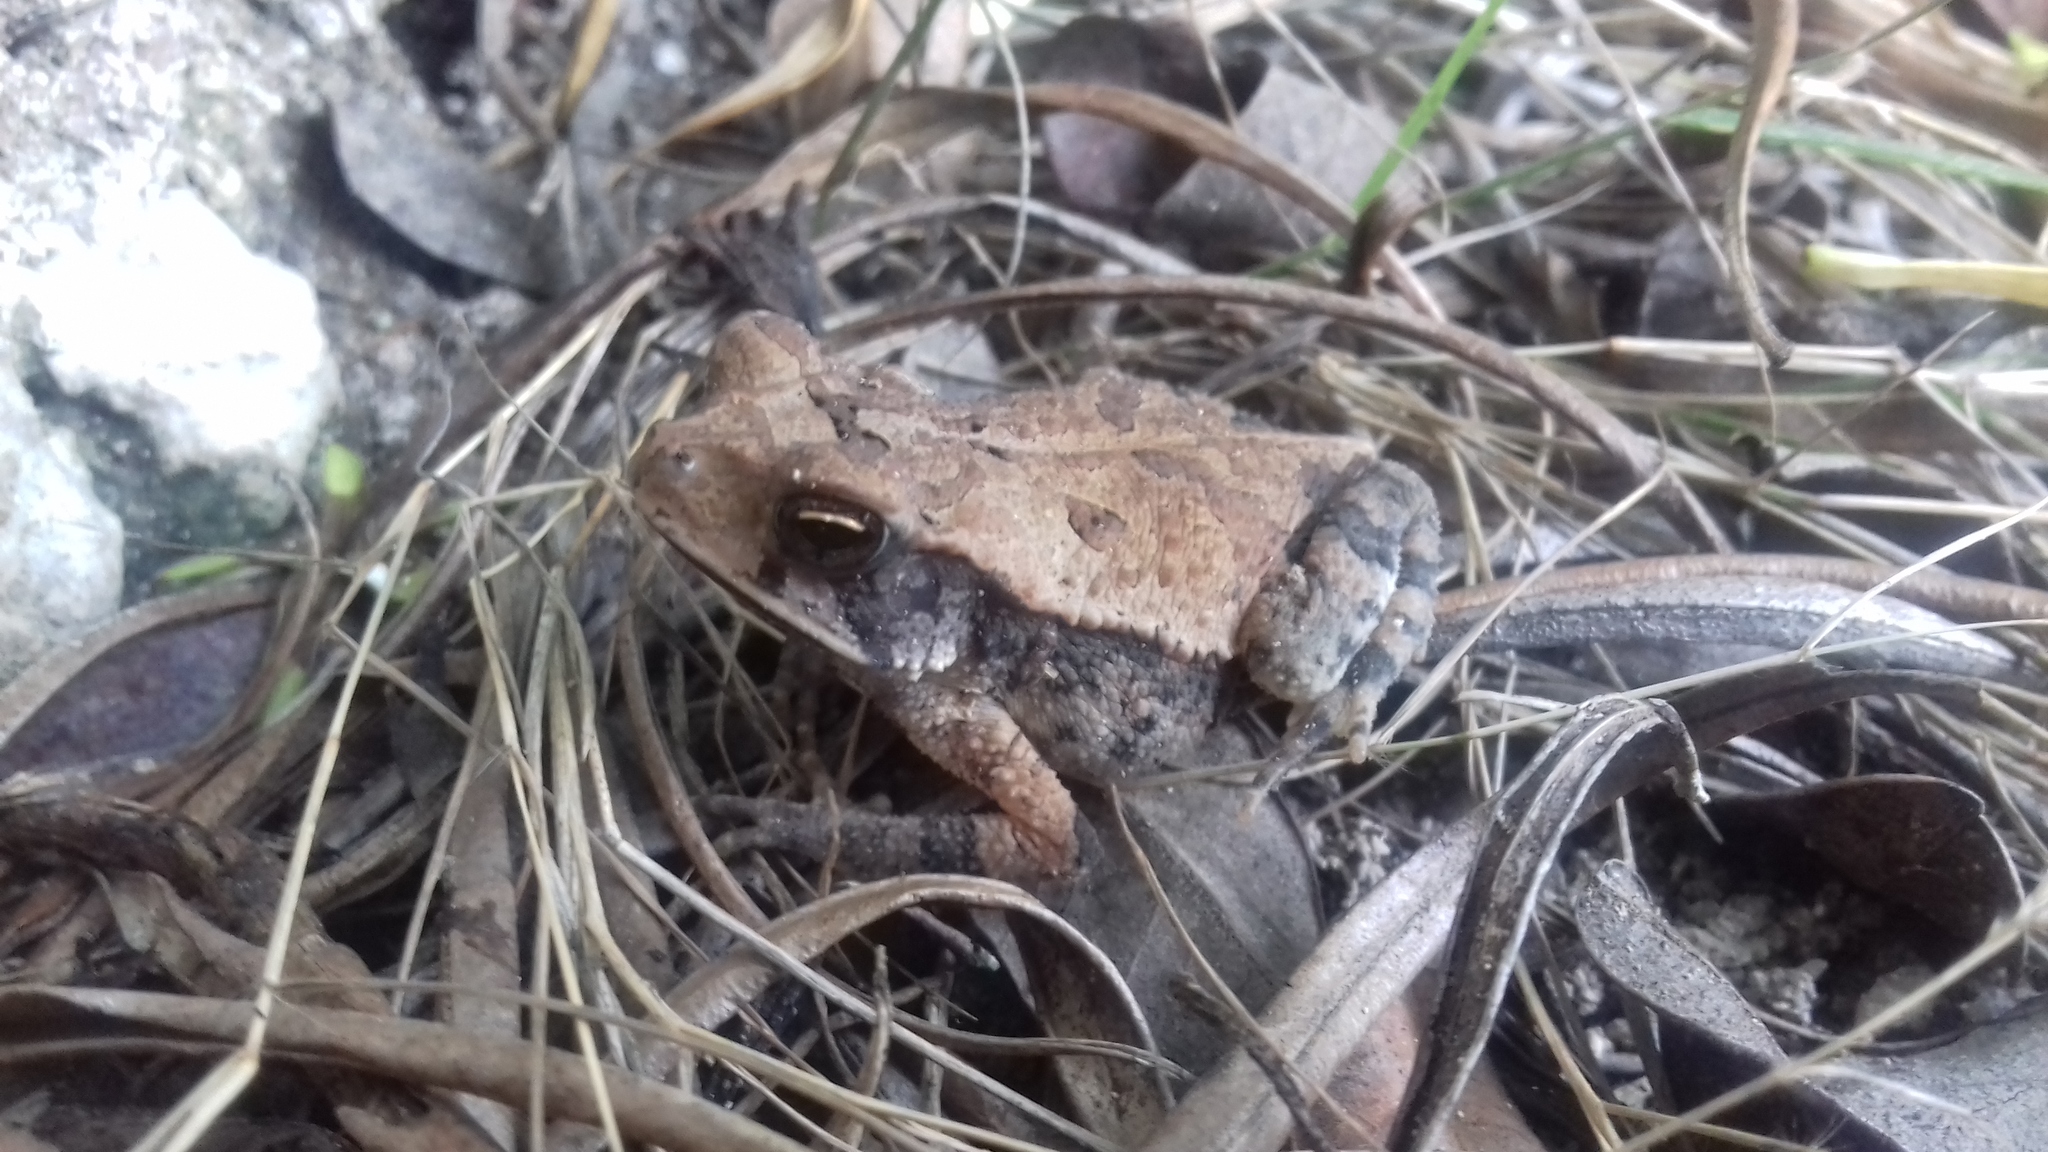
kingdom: Animalia
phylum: Chordata
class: Amphibia
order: Anura
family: Bufonidae
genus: Incilius
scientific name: Incilius valliceps
